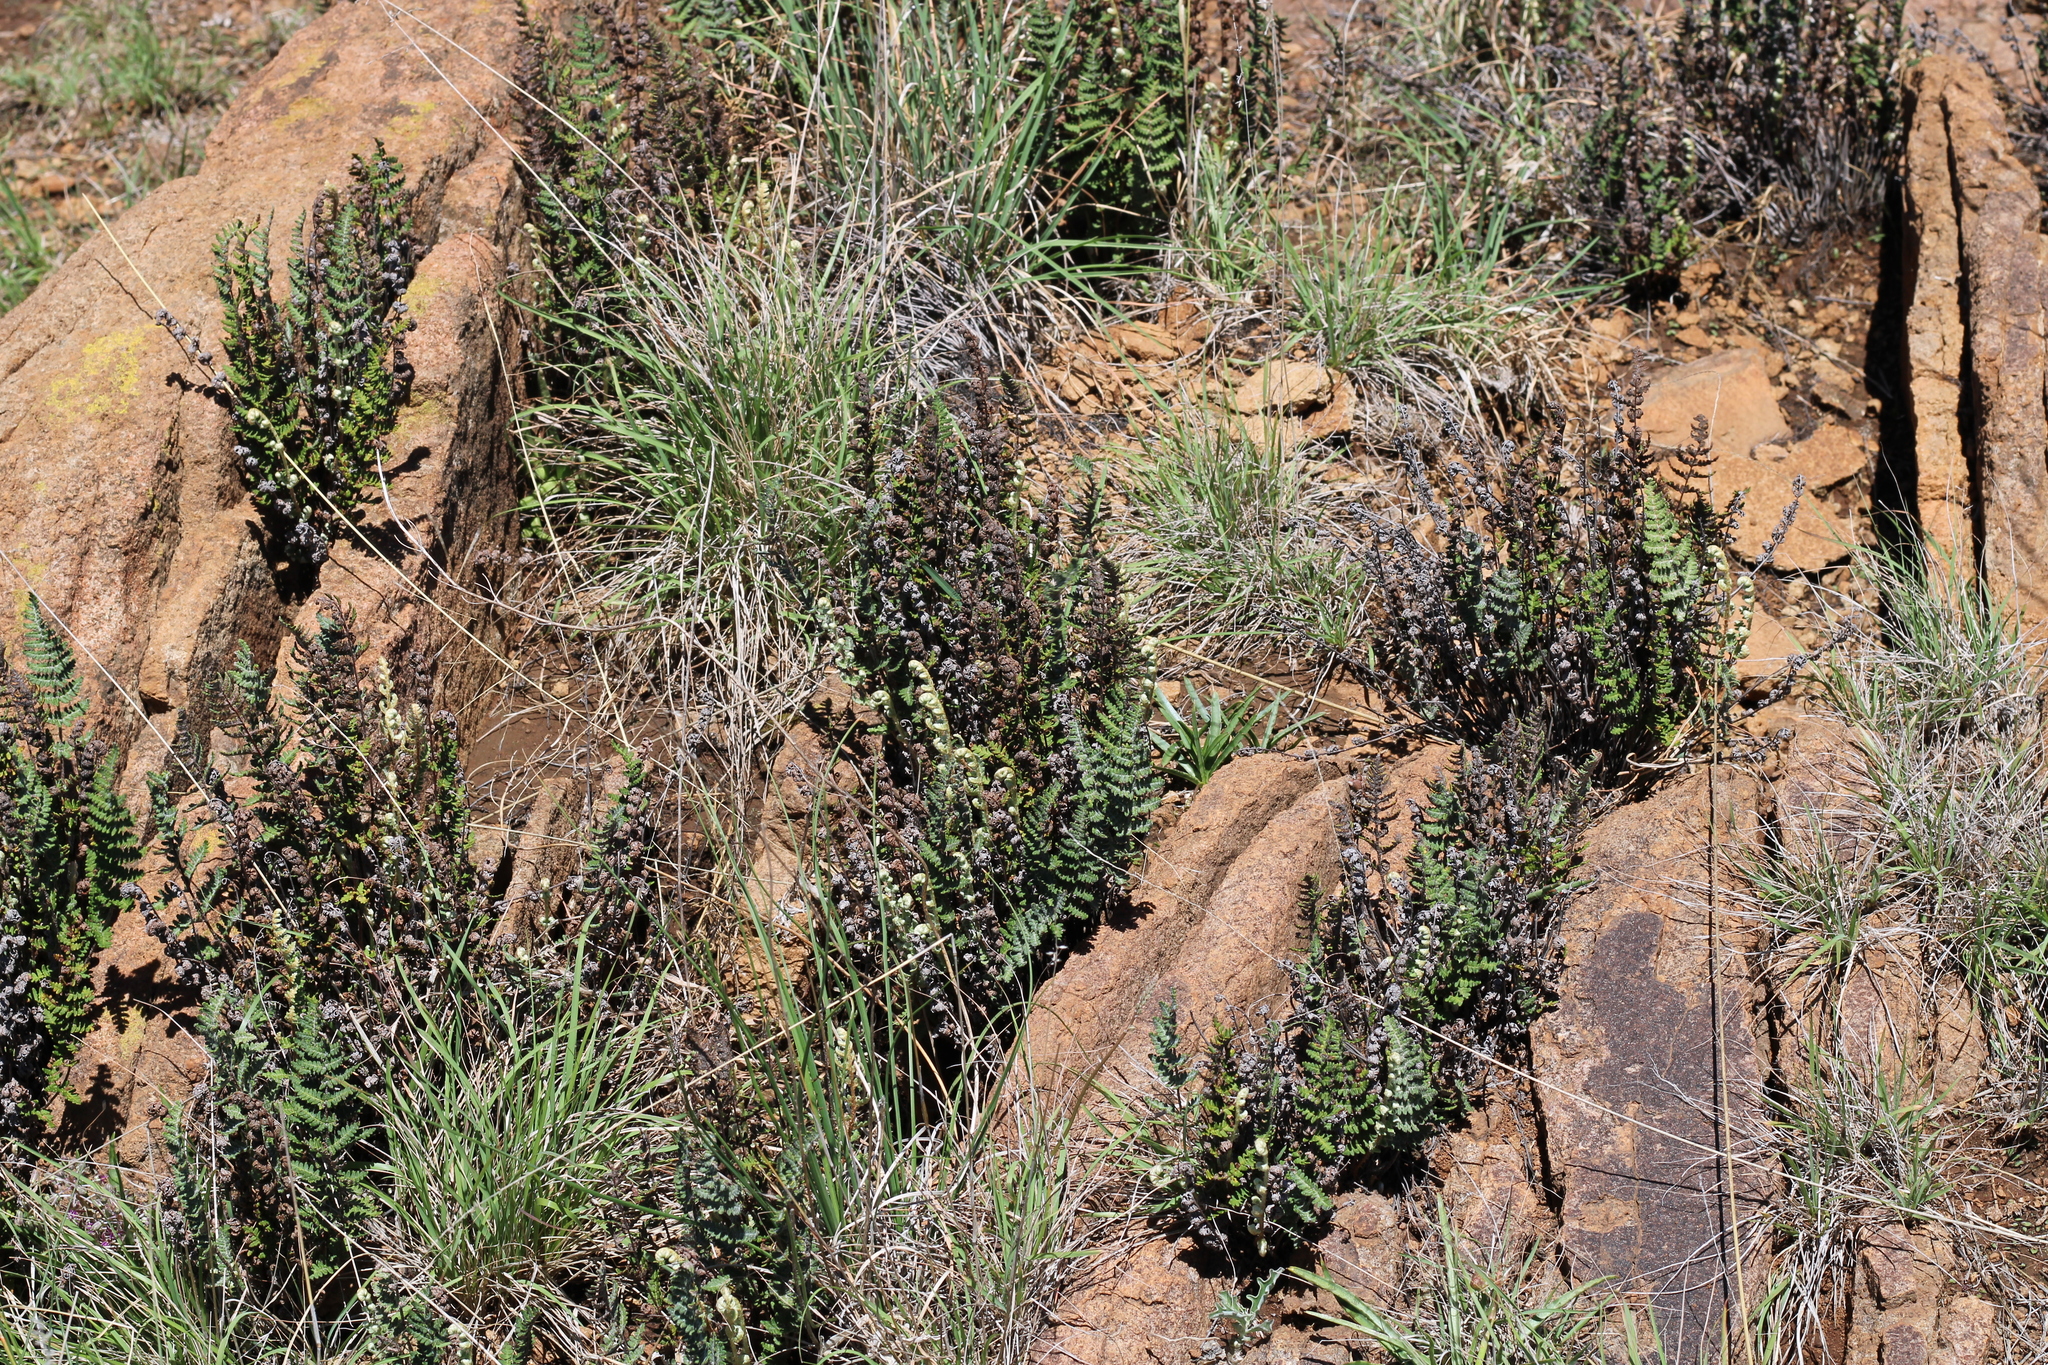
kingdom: Plantae
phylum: Tracheophyta
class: Polypodiopsida
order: Polypodiales
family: Pteridaceae
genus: Cheilanthes
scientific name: Cheilanthes eckloniana
